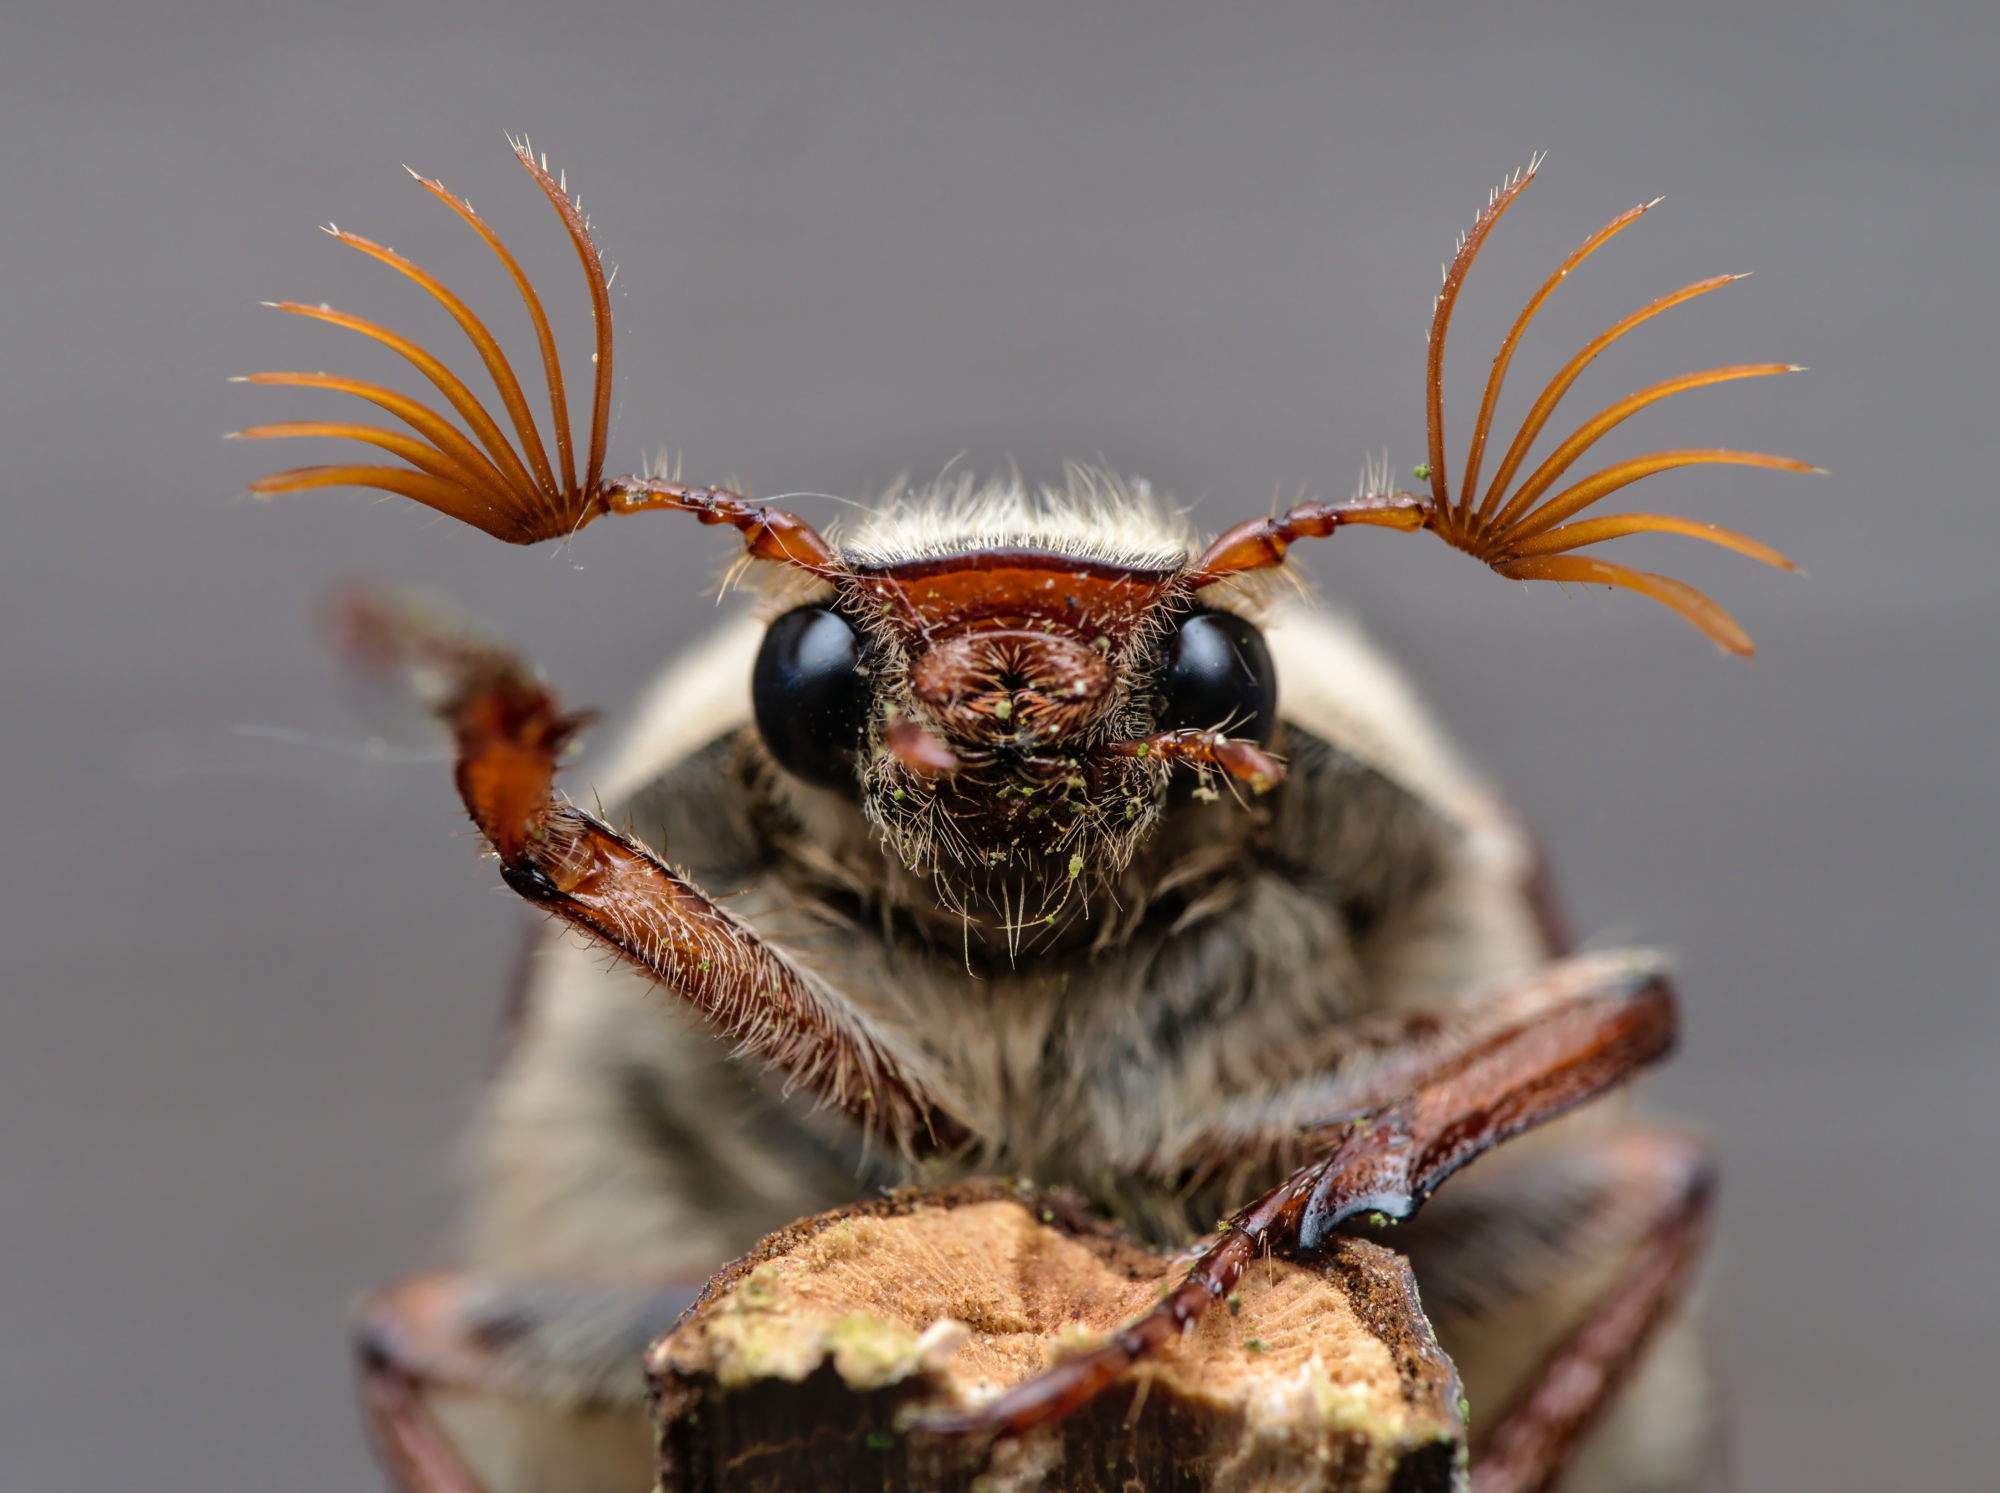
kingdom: Animalia
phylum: Arthropoda
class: Insecta
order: Coleoptera
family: Scarabaeidae
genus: Melolontha
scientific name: Melolontha melolontha
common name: Cockchafer maybeetle
